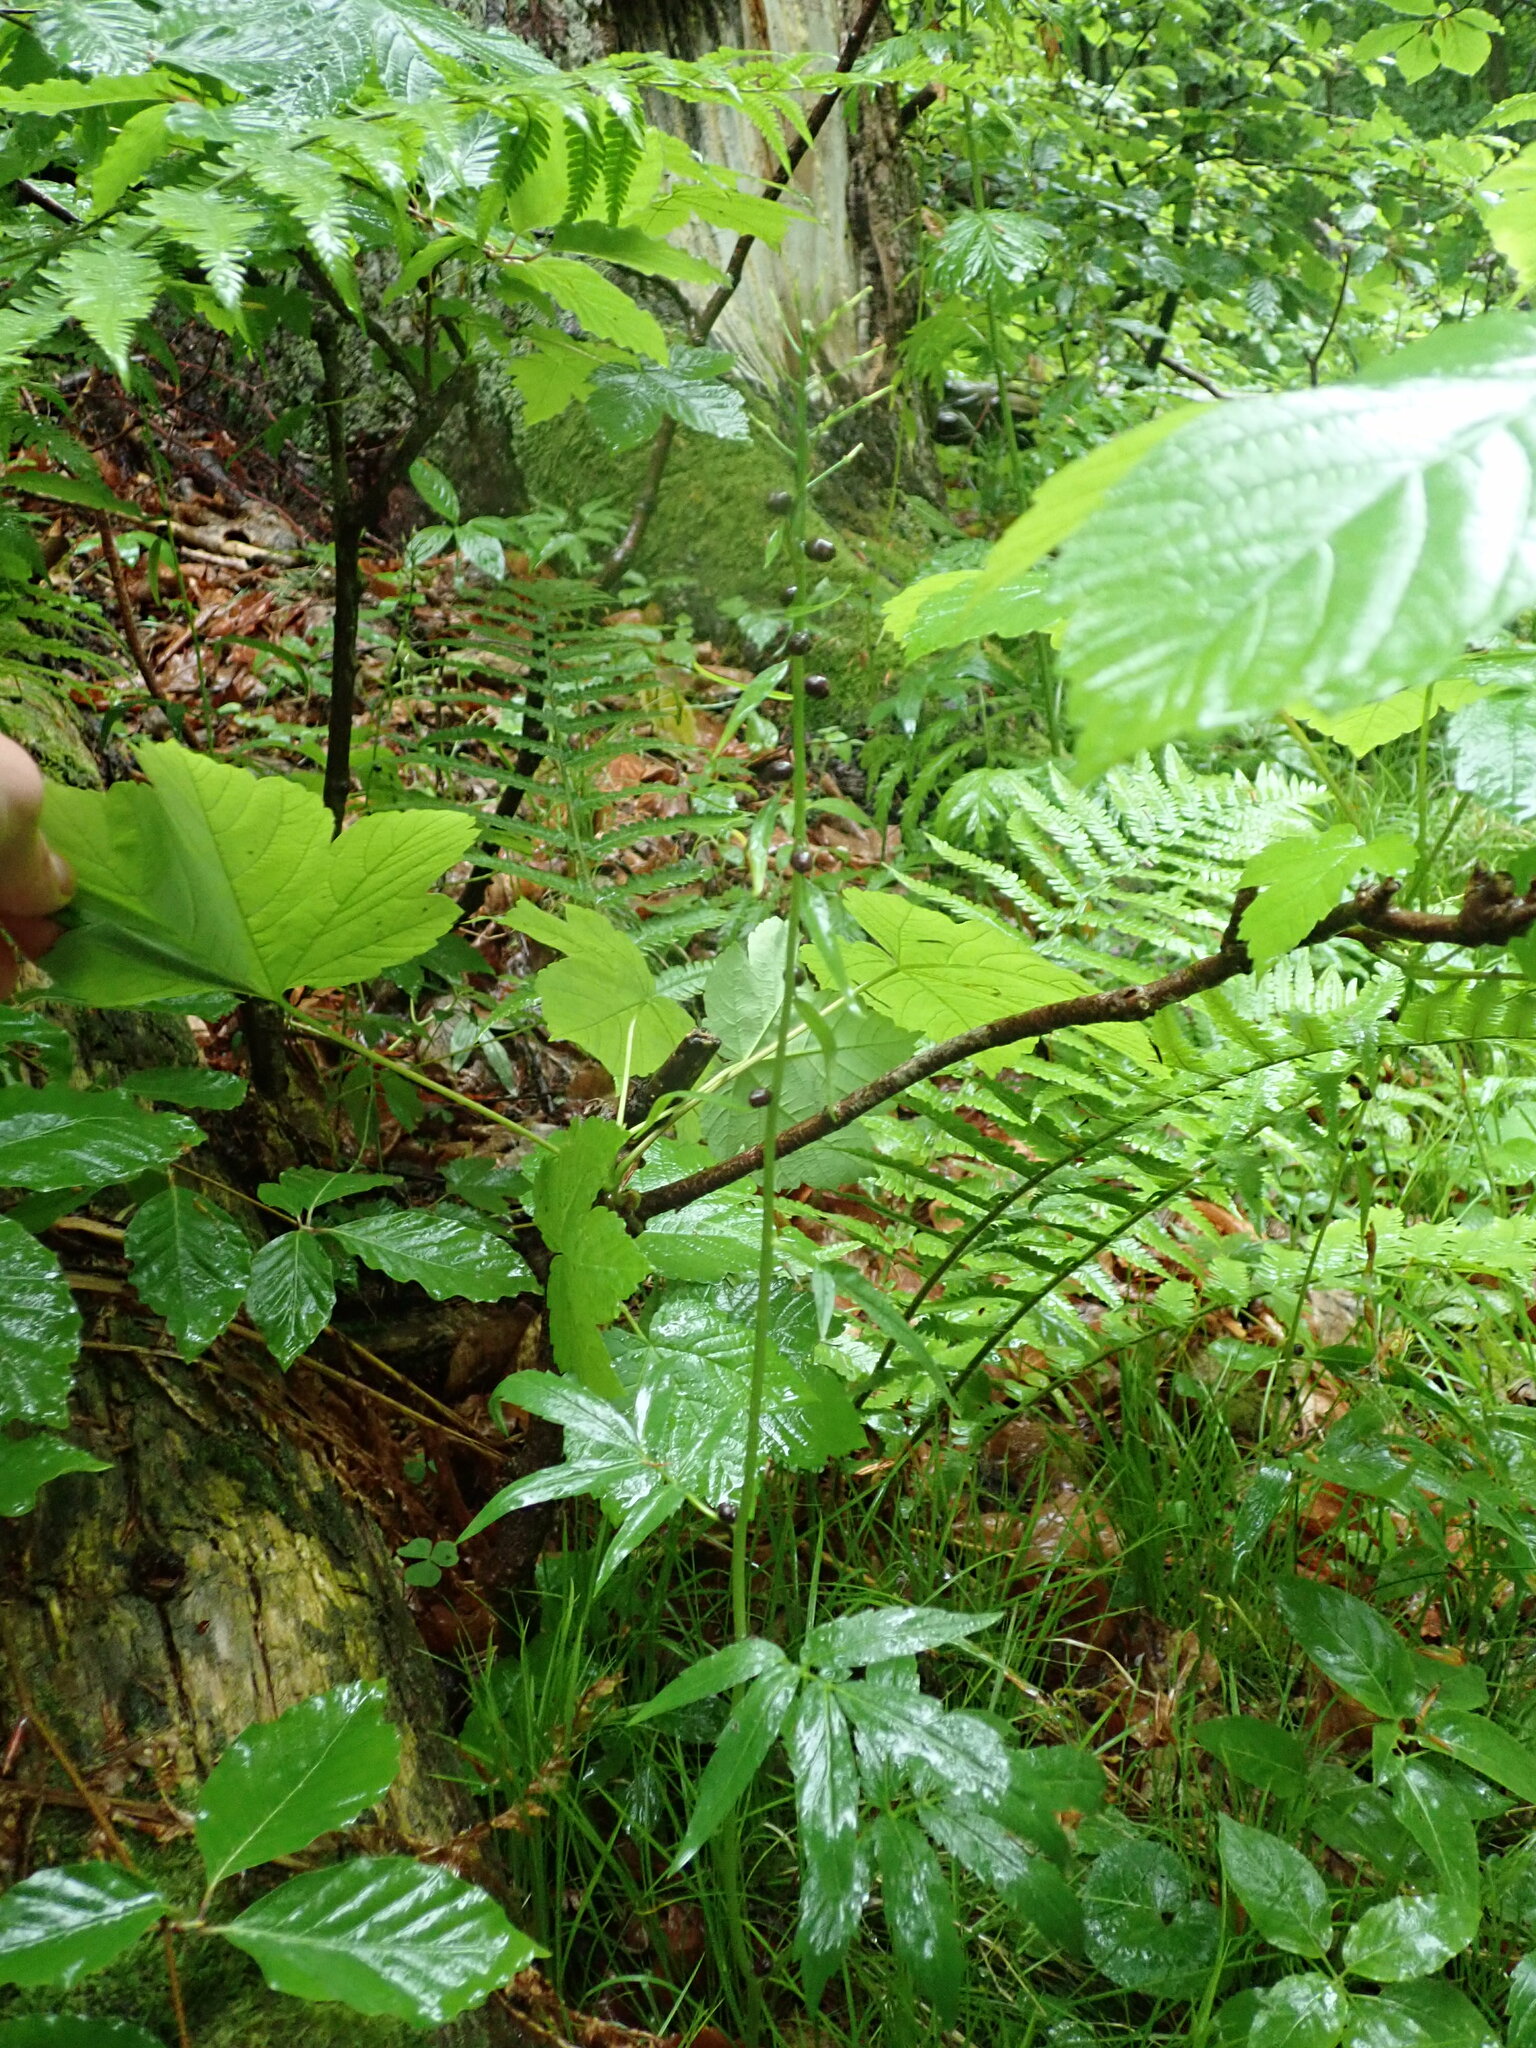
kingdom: Plantae
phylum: Tracheophyta
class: Magnoliopsida
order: Brassicales
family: Brassicaceae
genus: Cardamine
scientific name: Cardamine bulbifera
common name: Coralroot bittercress
